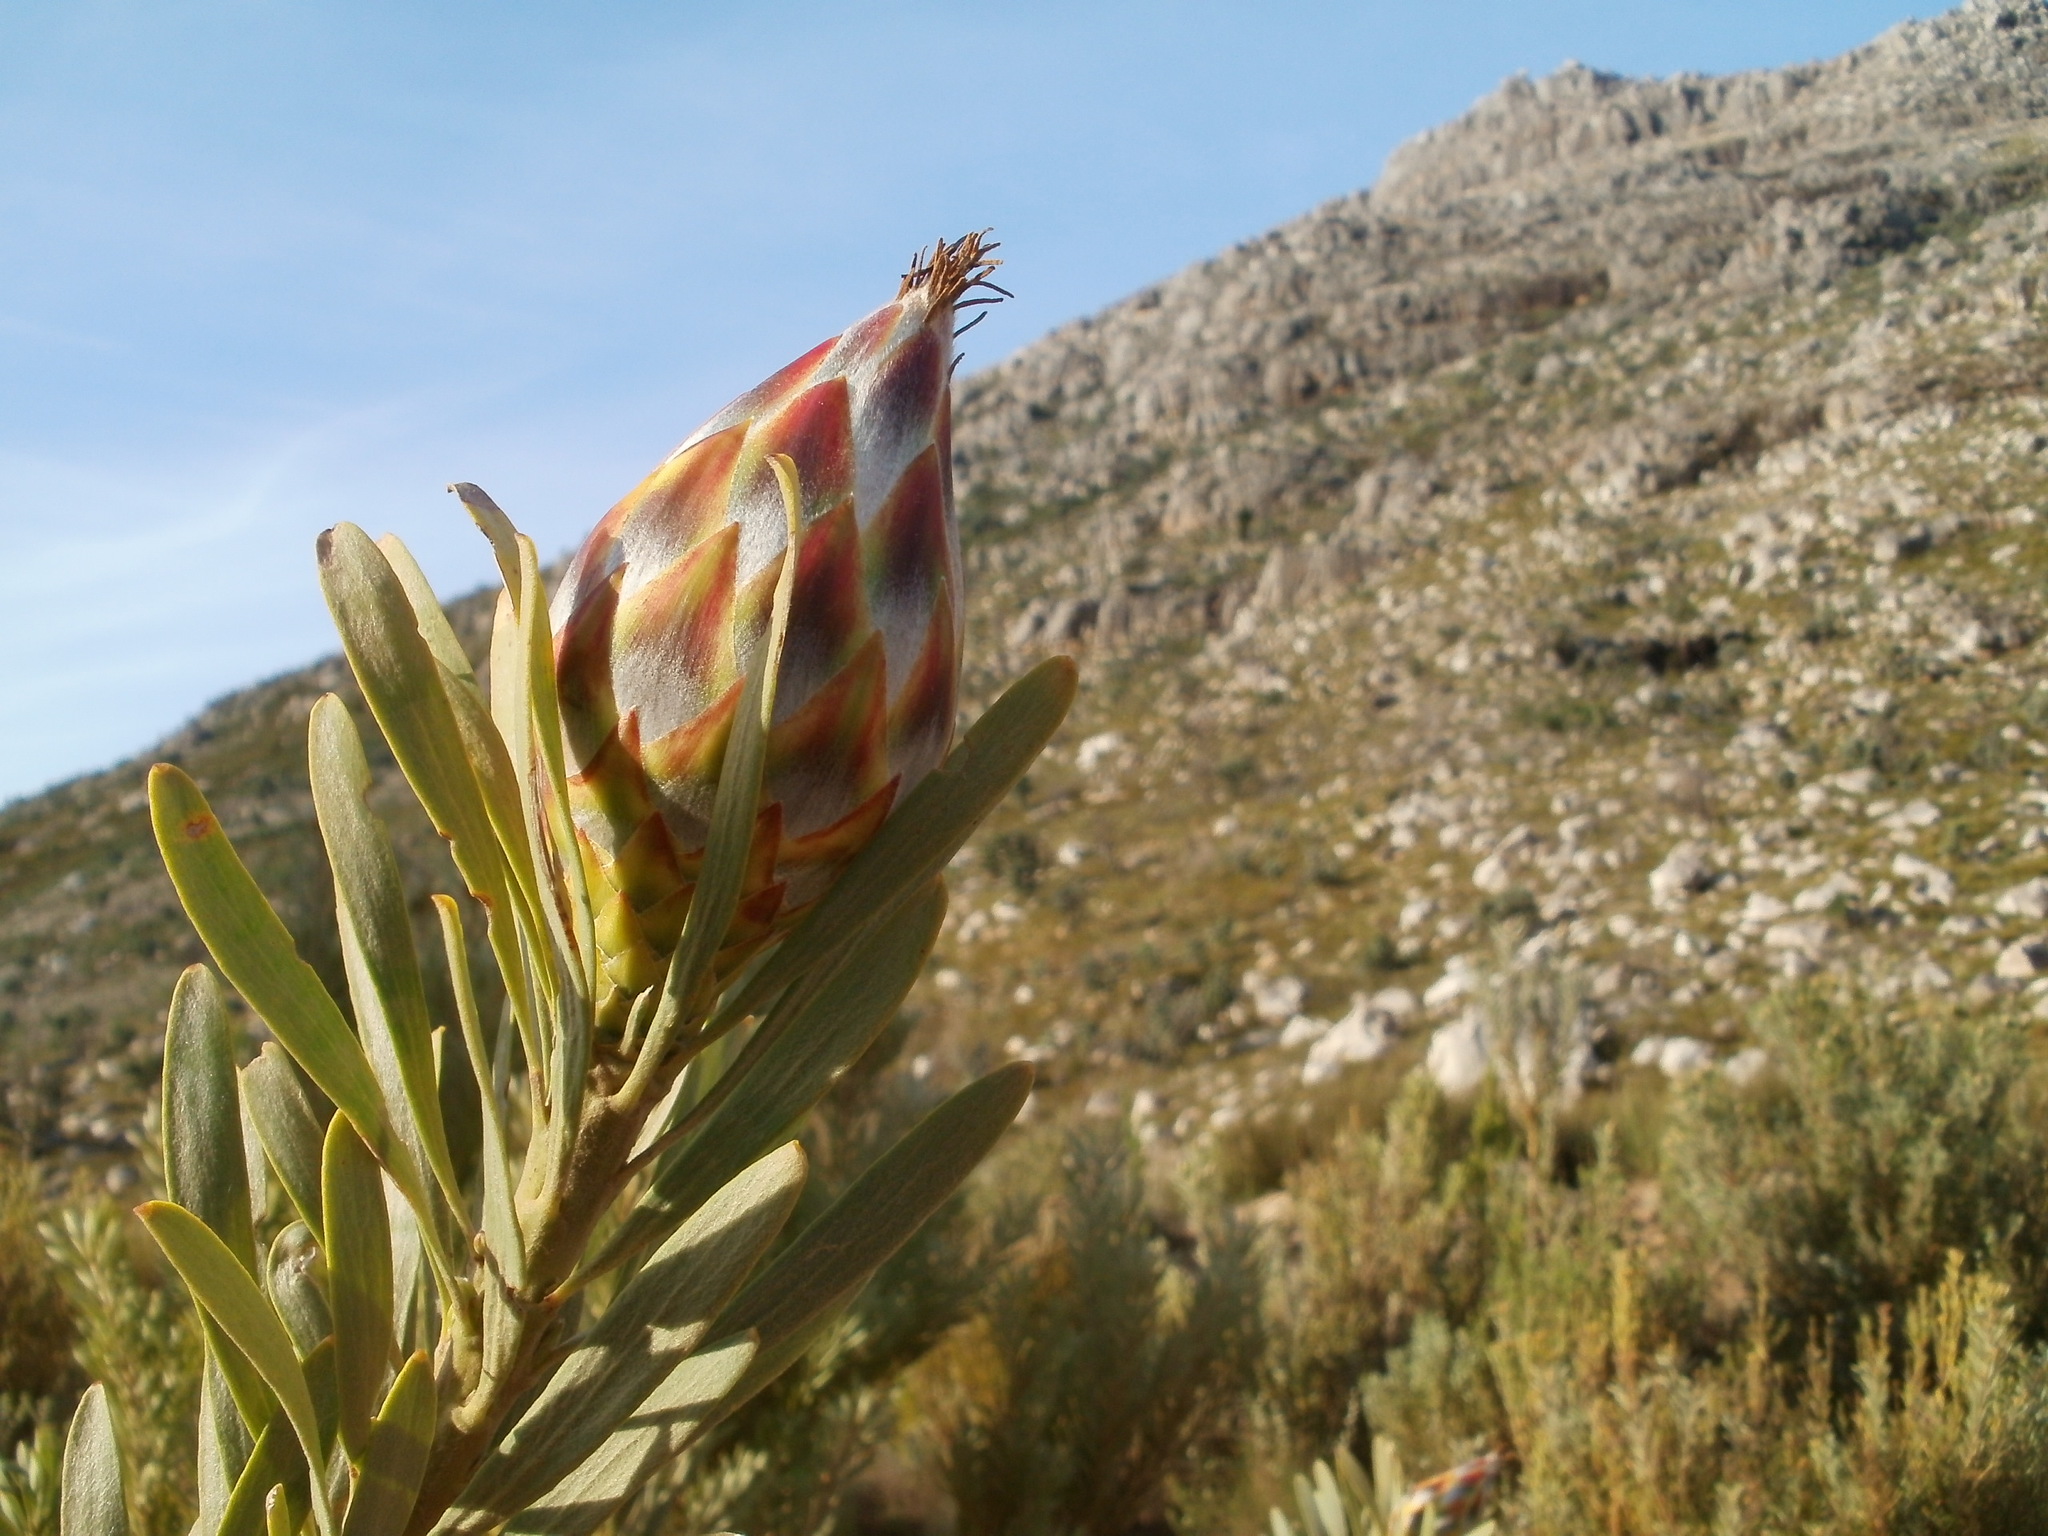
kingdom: Plantae
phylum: Tracheophyta
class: Magnoliopsida
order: Proteales
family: Proteaceae
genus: Leucadendron
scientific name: Leucadendron rubrum
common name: Spinning top
